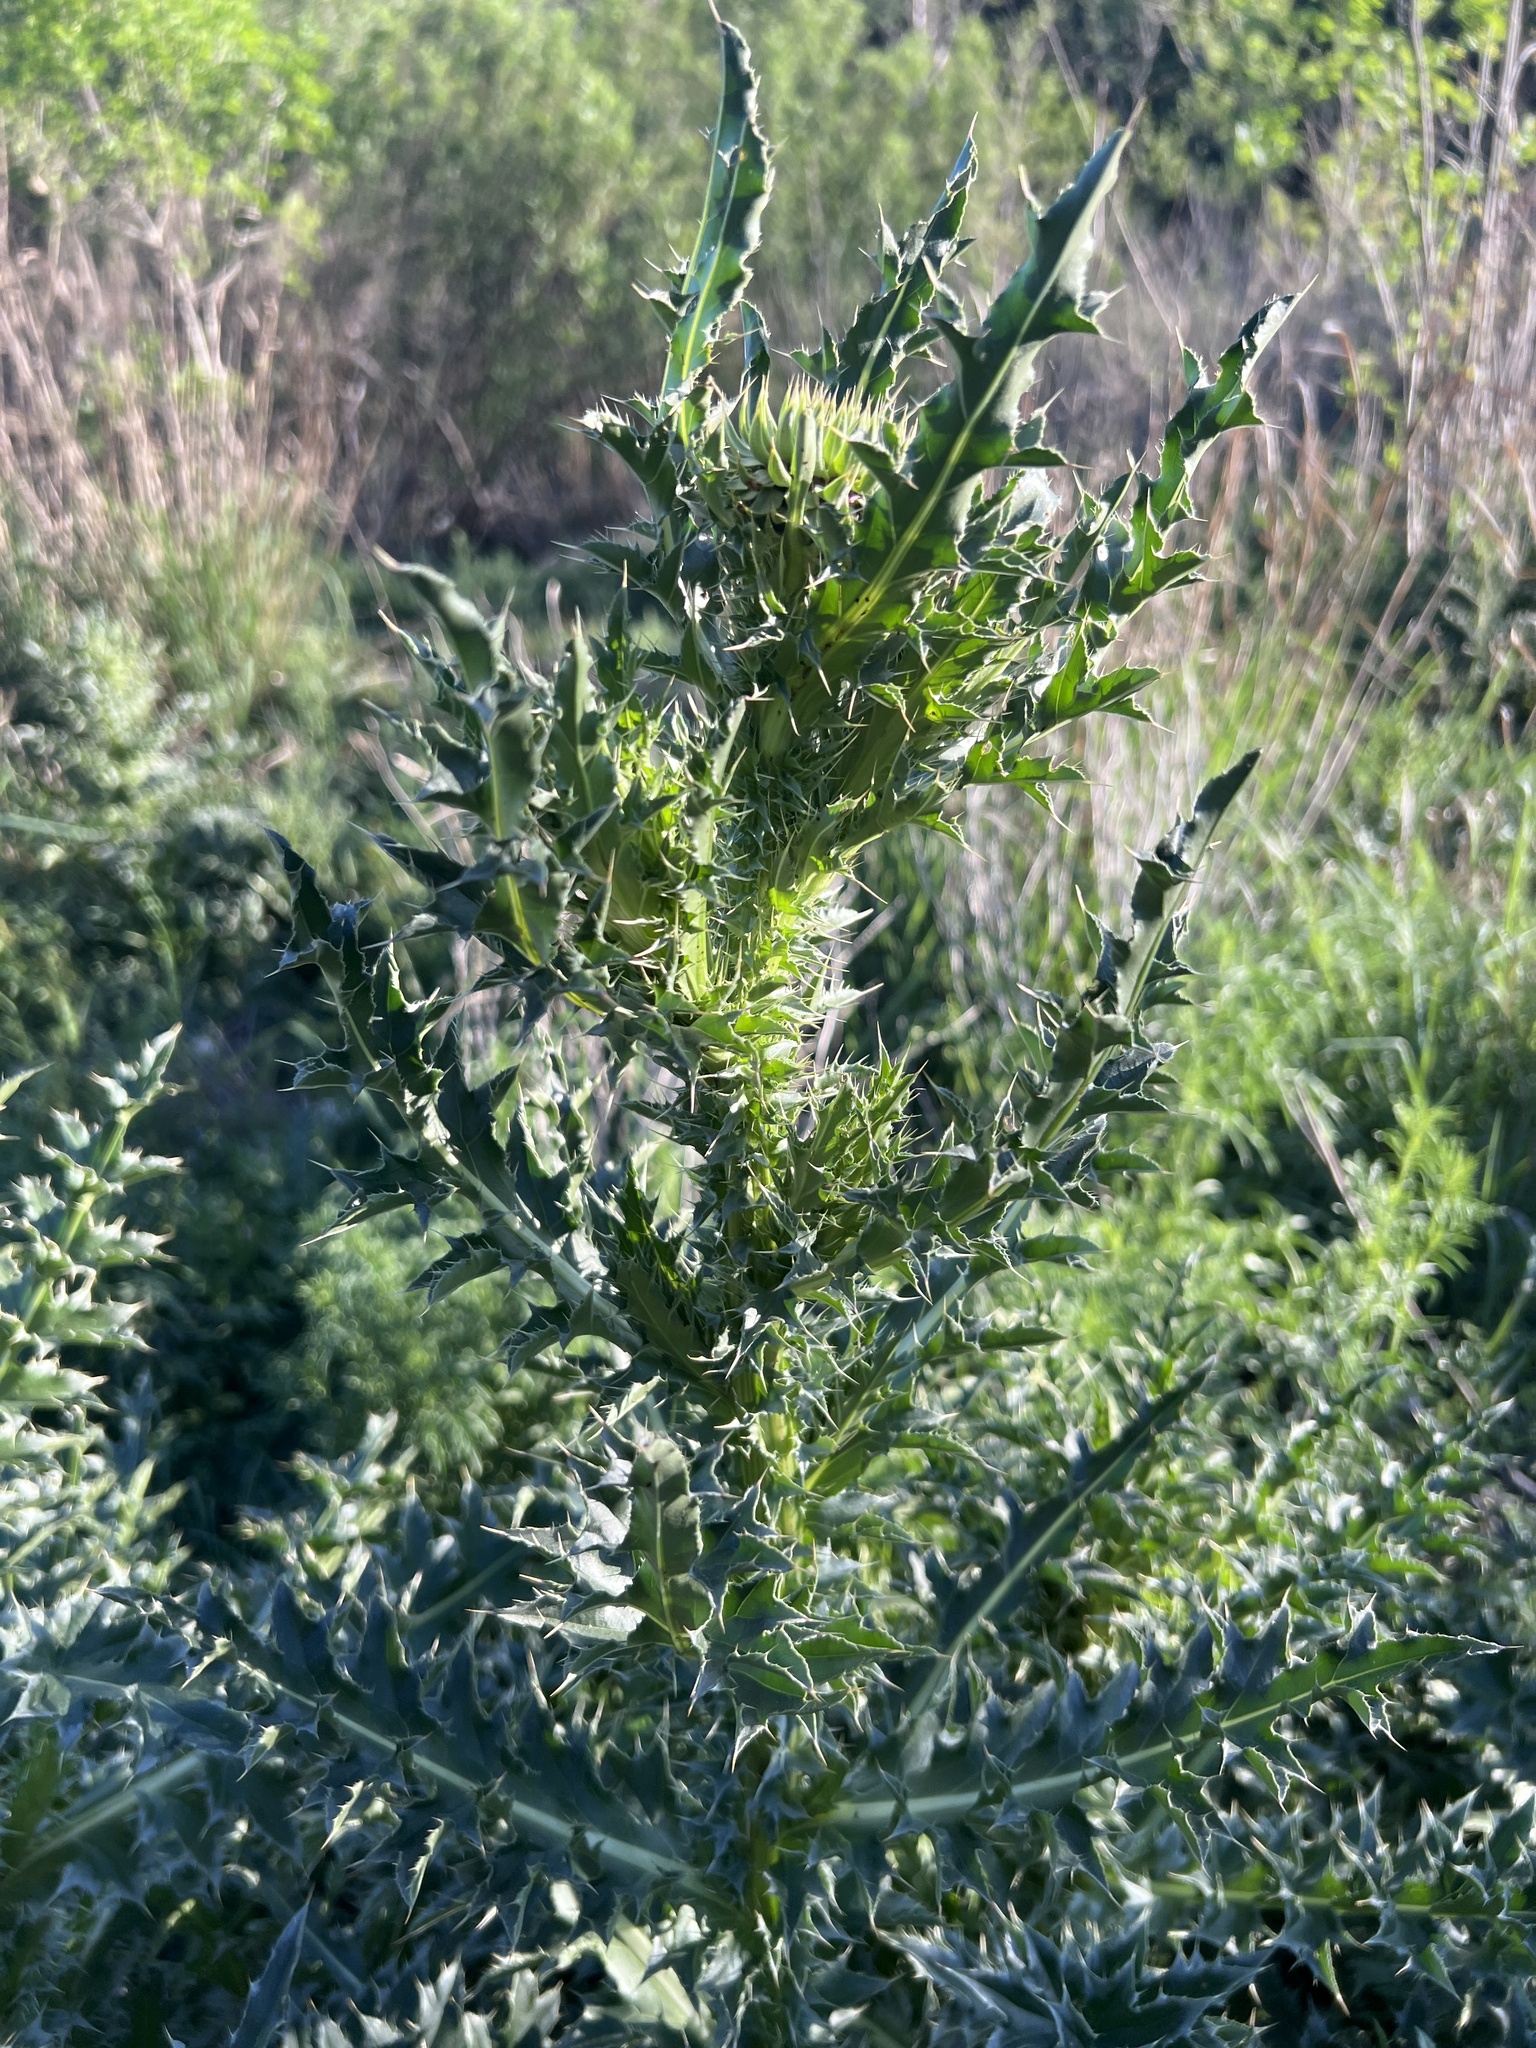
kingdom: Plantae
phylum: Tracheophyta
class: Magnoliopsida
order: Asterales
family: Asteraceae
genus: Carduus
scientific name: Carduus nutans
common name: Musk thistle
